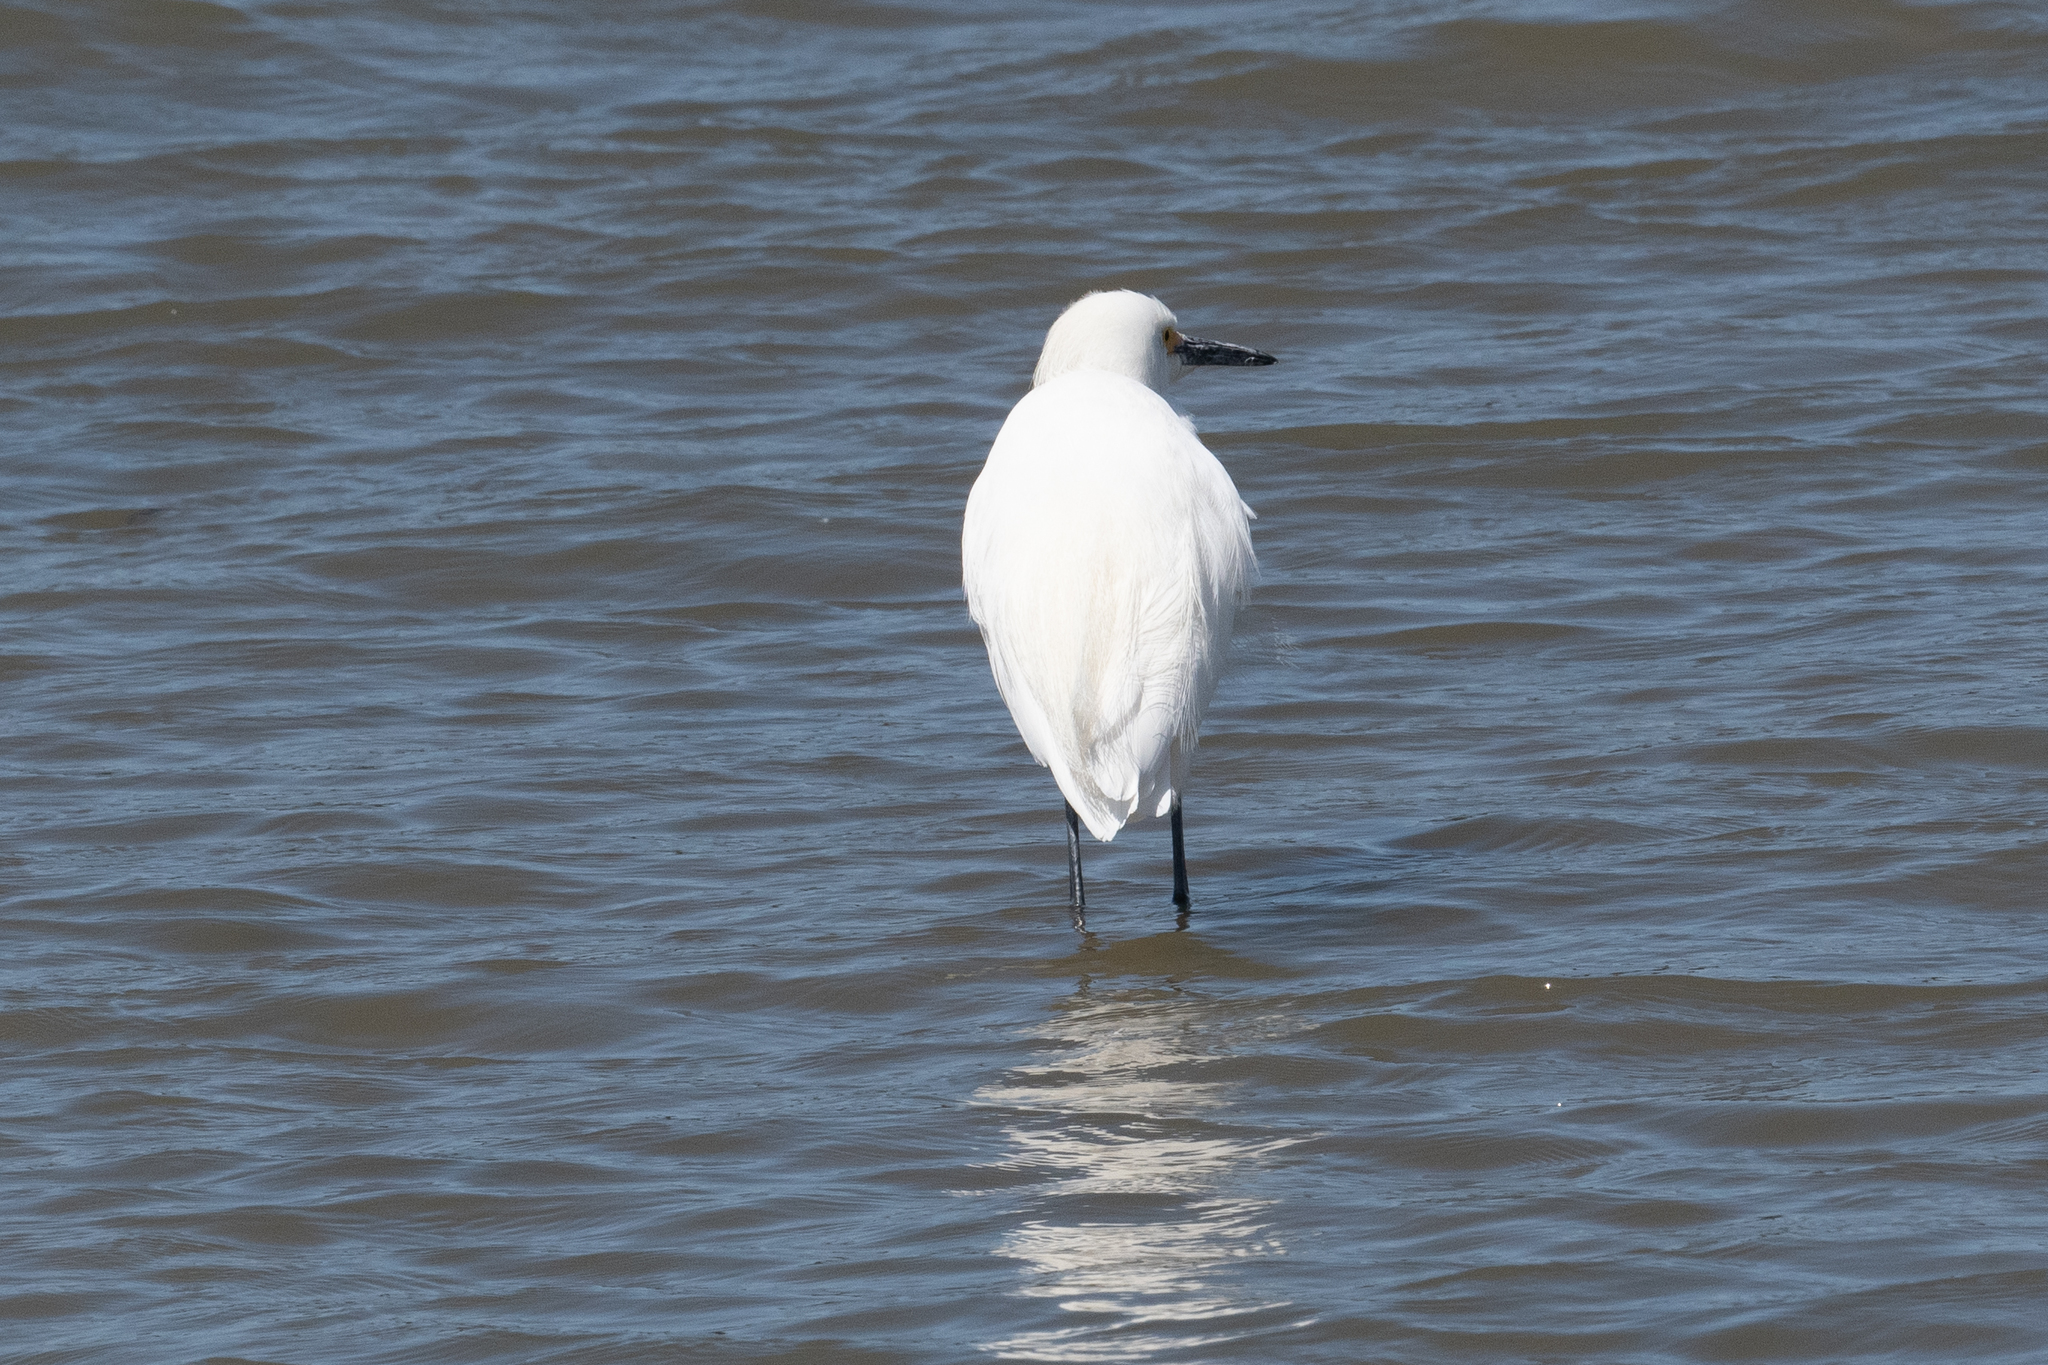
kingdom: Animalia
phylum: Chordata
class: Aves
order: Pelecaniformes
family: Ardeidae
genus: Egretta
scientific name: Egretta thula
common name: Snowy egret
